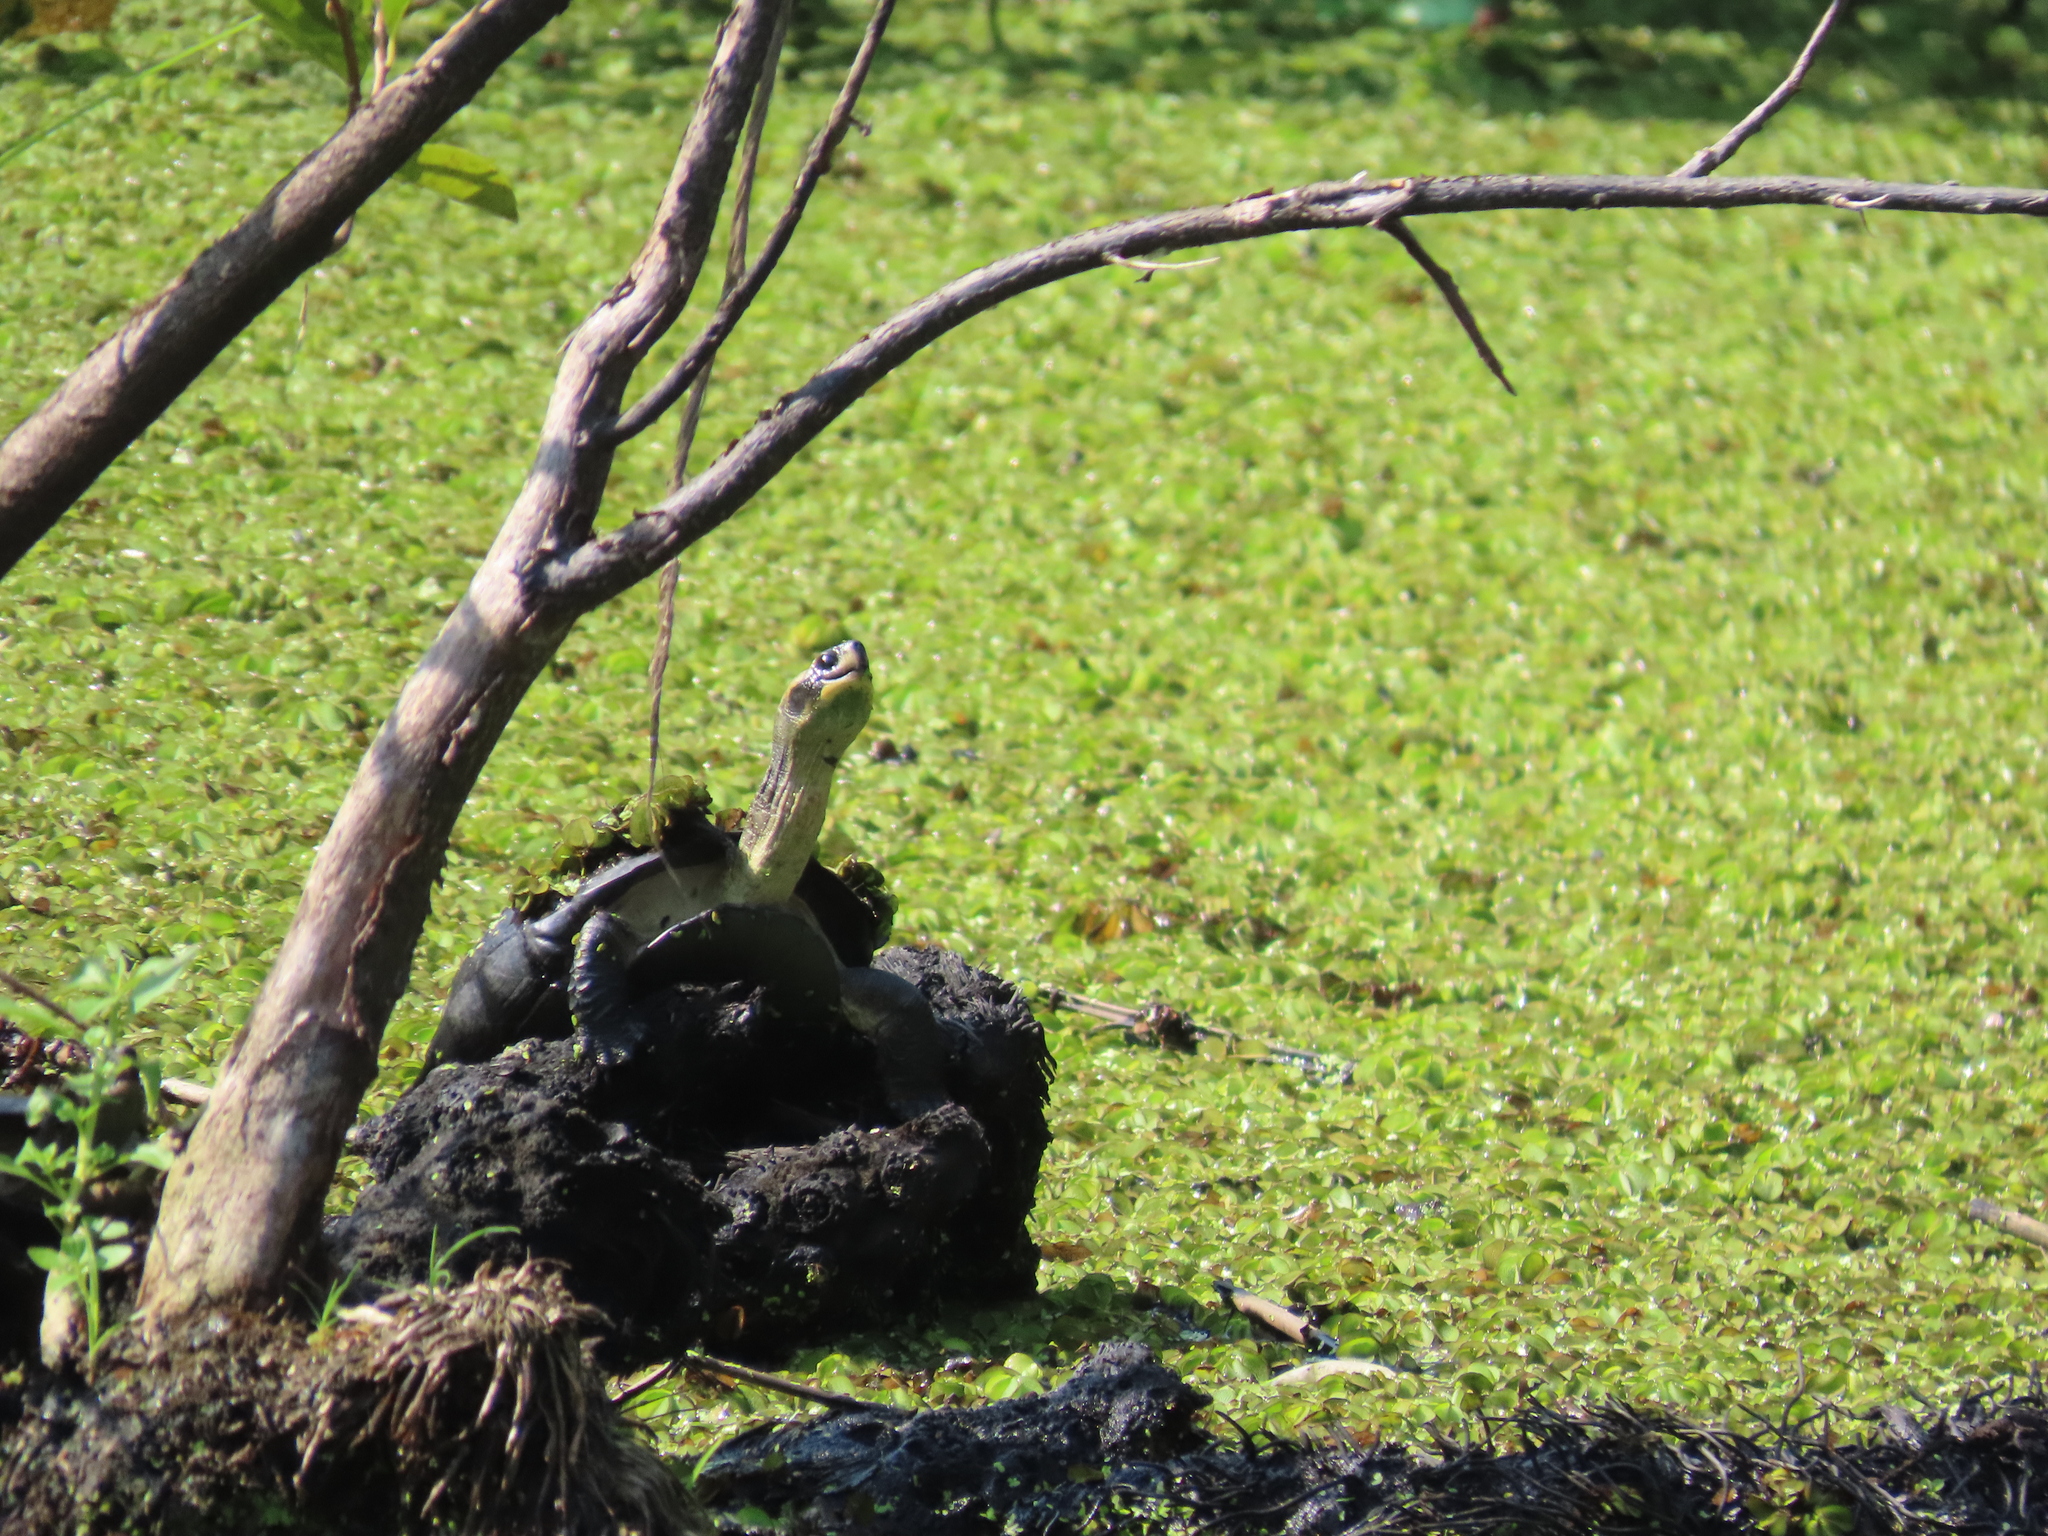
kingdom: Animalia
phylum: Chordata
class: Testudines
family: Geoemydidae
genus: Melanochelys
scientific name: Melanochelys trijuga
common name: Indian black turtle
